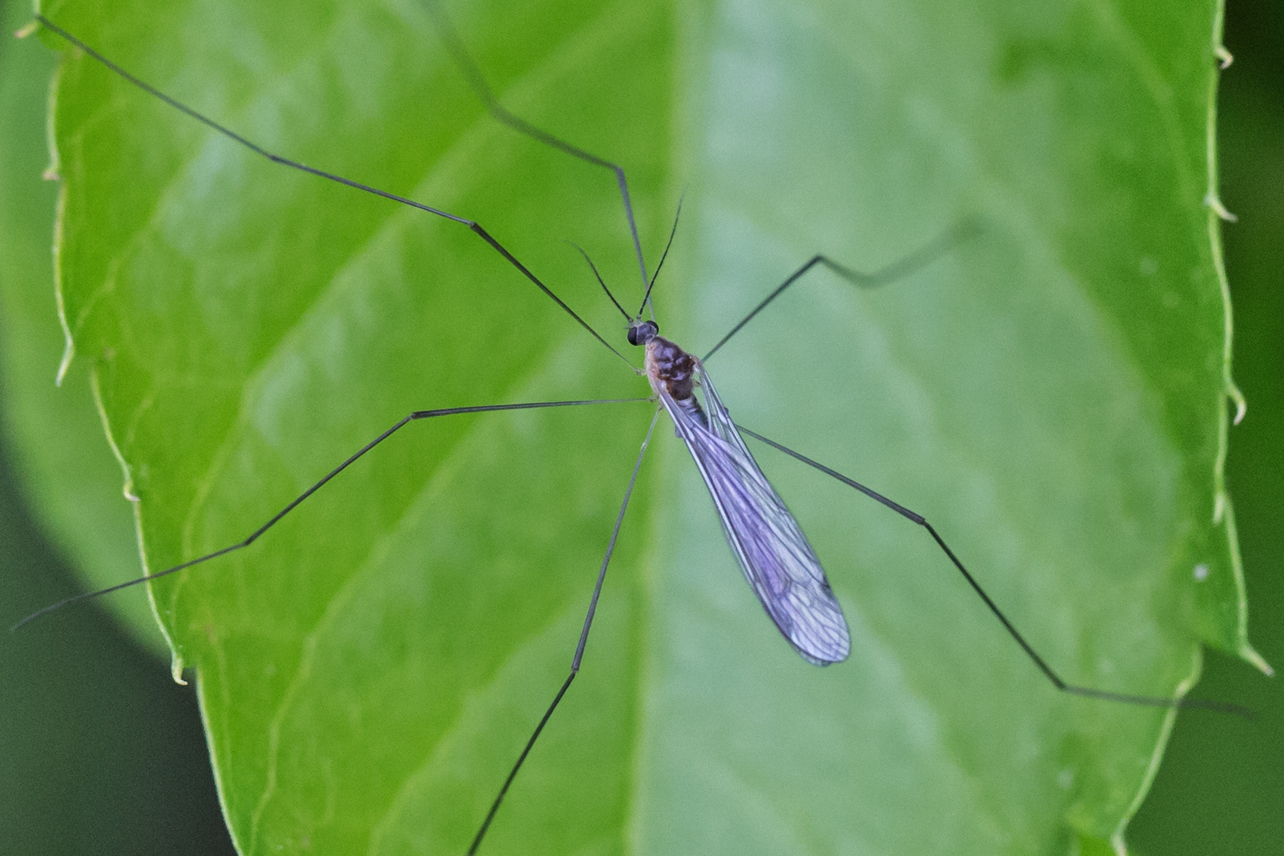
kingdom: Animalia
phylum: Arthropoda
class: Insecta
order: Diptera
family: Limoniidae
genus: Pilaria
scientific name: Pilaria tenuipes
